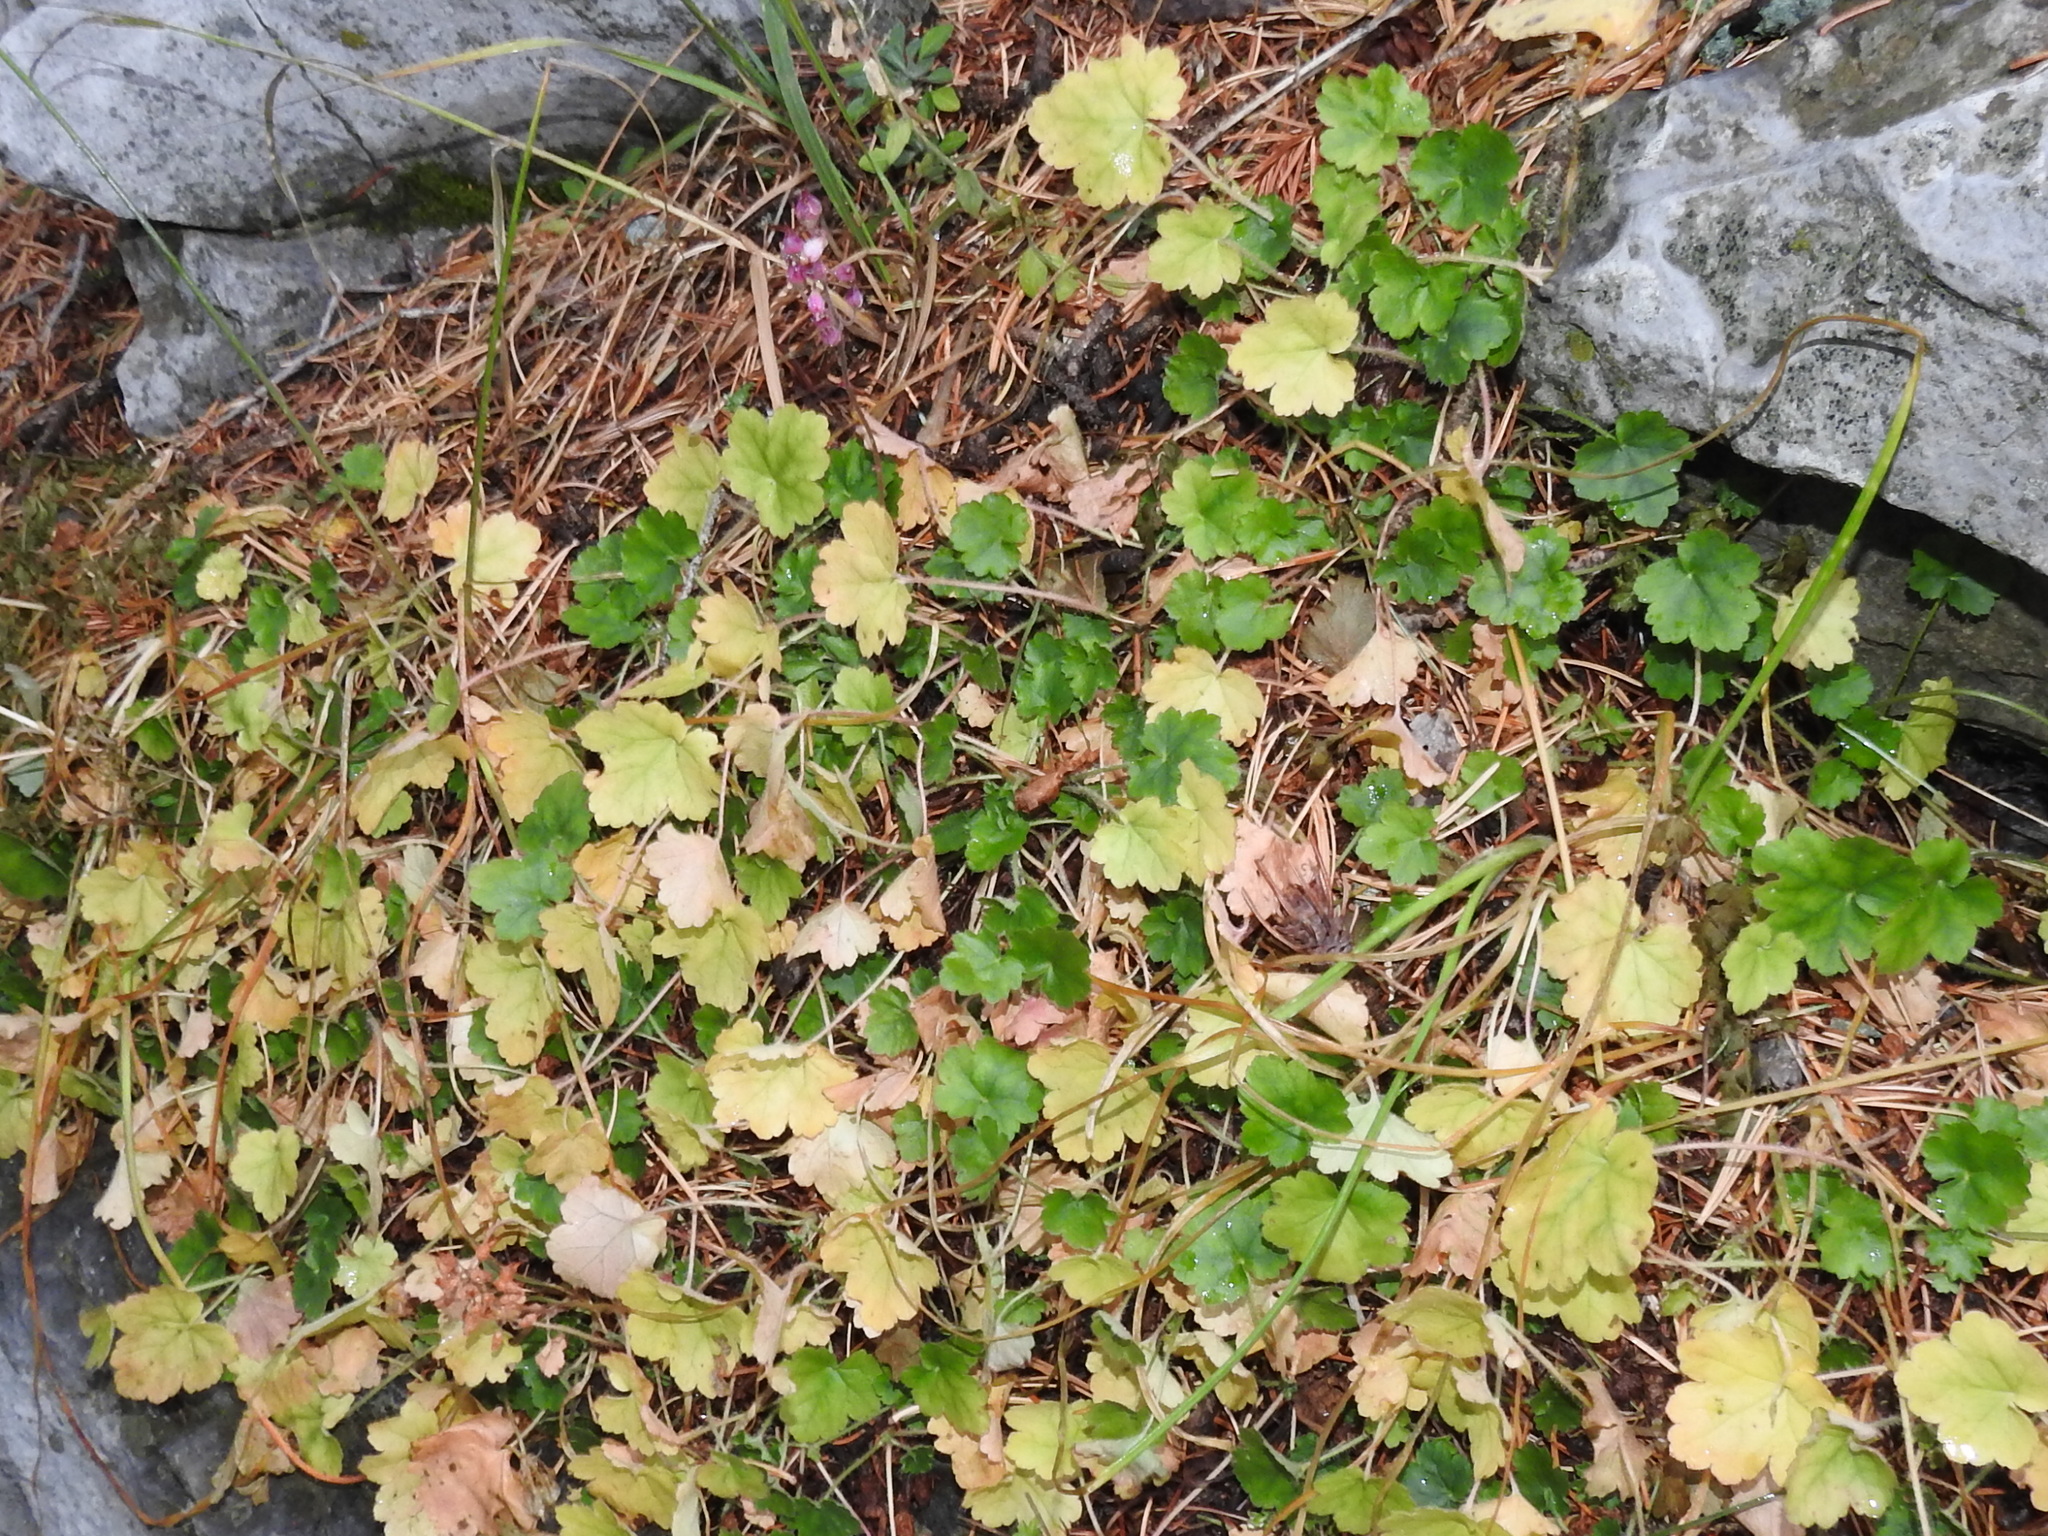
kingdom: Plantae
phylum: Tracheophyta
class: Magnoliopsida
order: Saxifragales
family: Saxifragaceae
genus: Heuchera
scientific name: Heuchera pulchella
